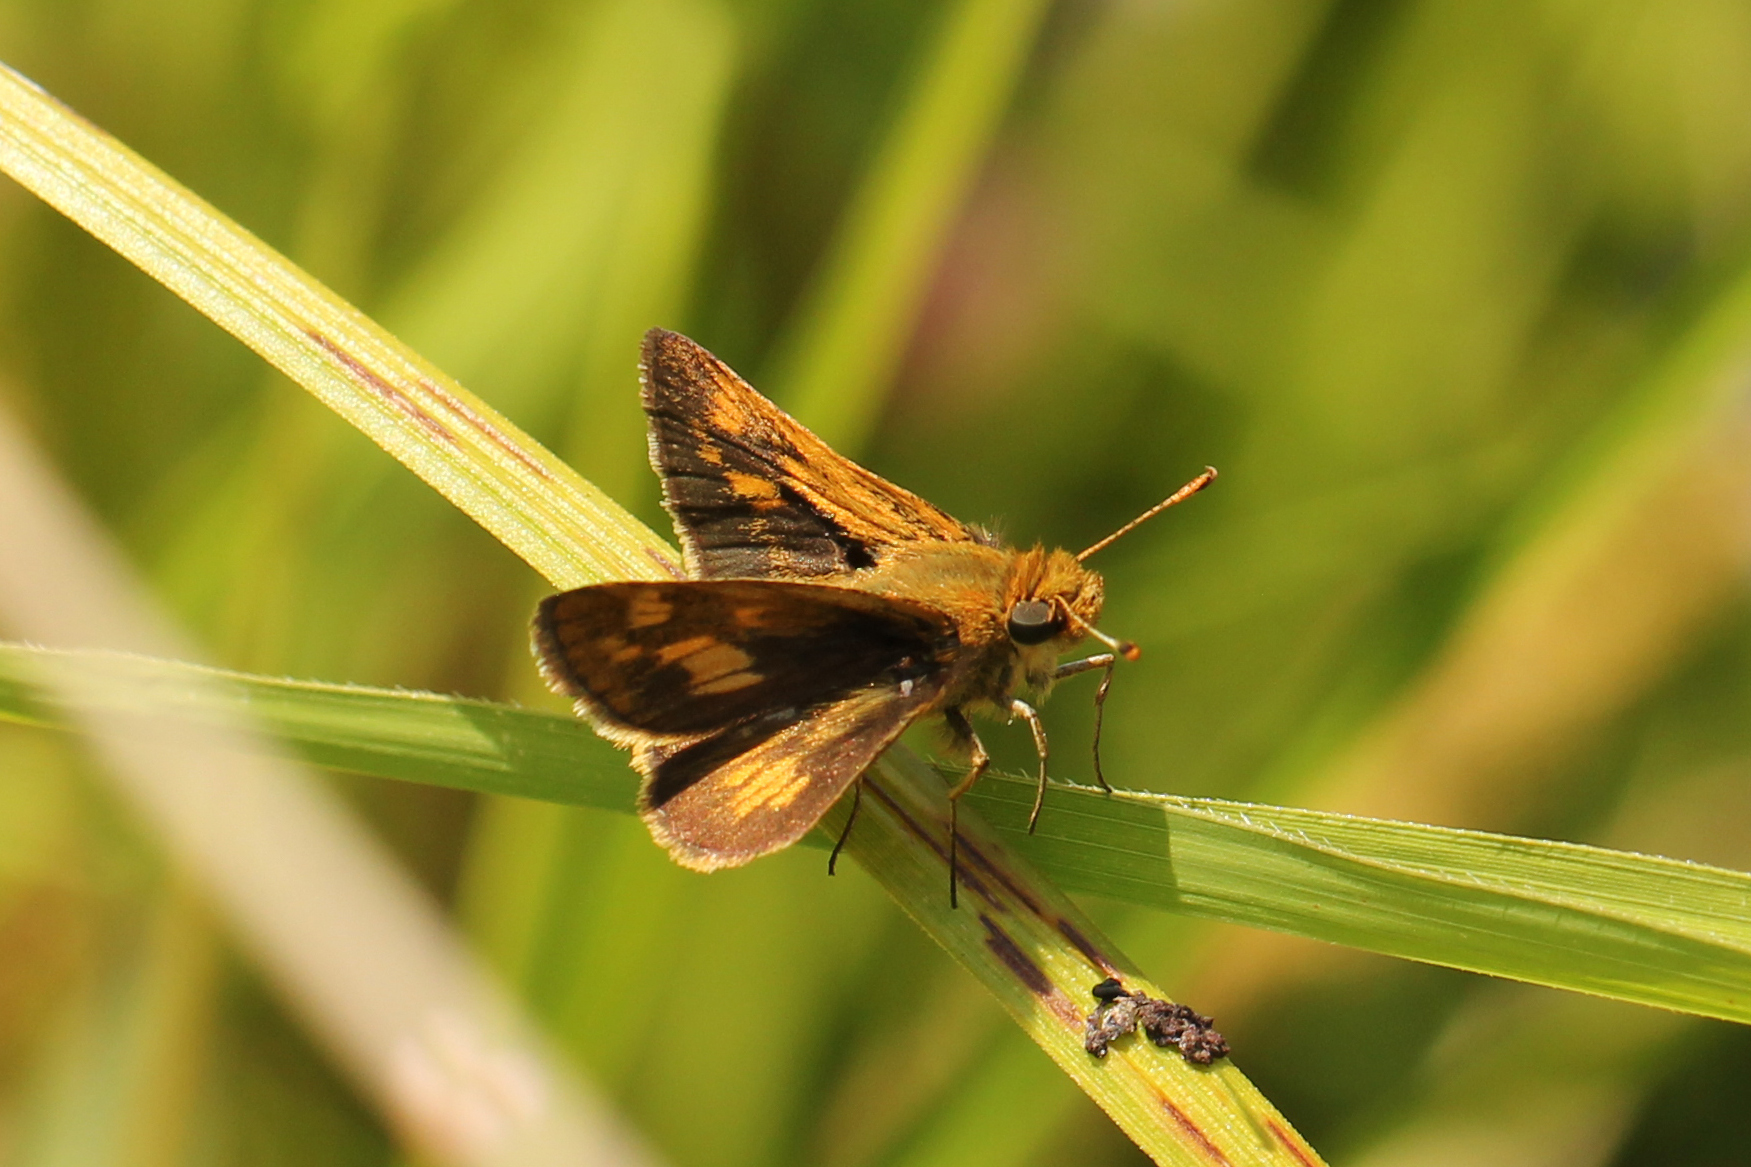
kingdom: Animalia
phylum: Arthropoda
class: Insecta
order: Lepidoptera
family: Hesperiidae
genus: Polites
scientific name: Polites coras
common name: Peck's skipper
